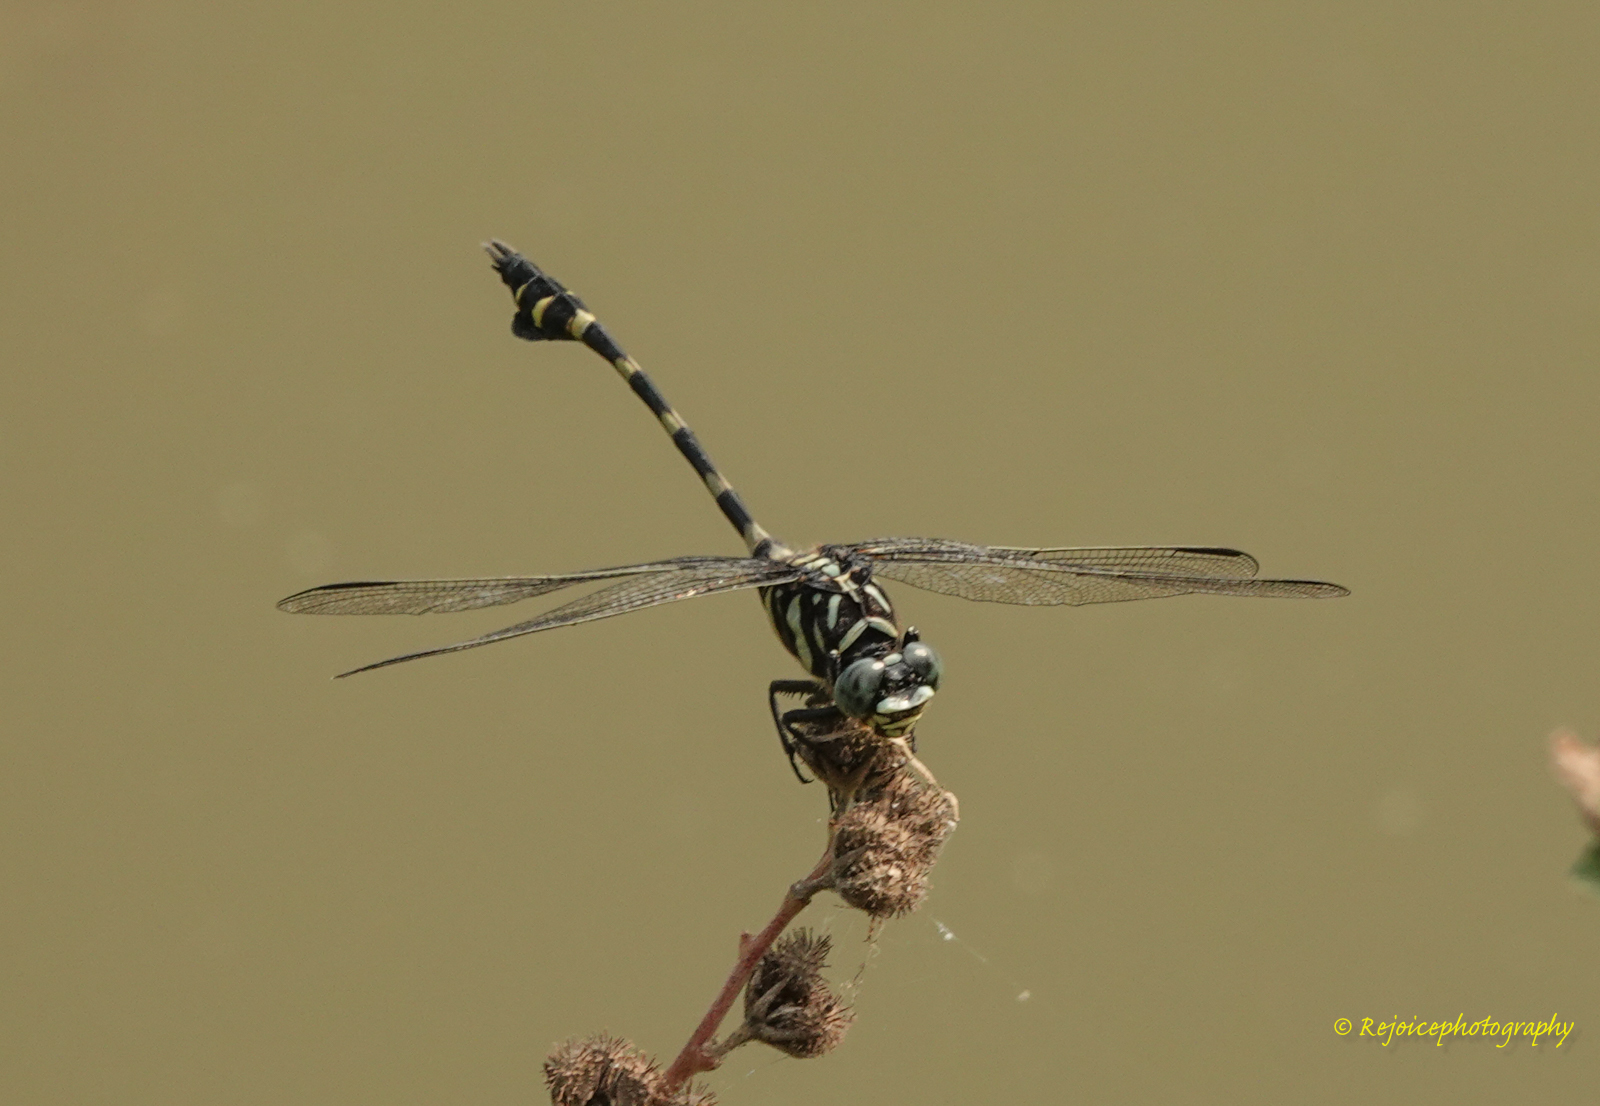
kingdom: Animalia
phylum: Arthropoda
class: Insecta
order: Odonata
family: Gomphidae
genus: Ictinogomphus
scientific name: Ictinogomphus rapax
